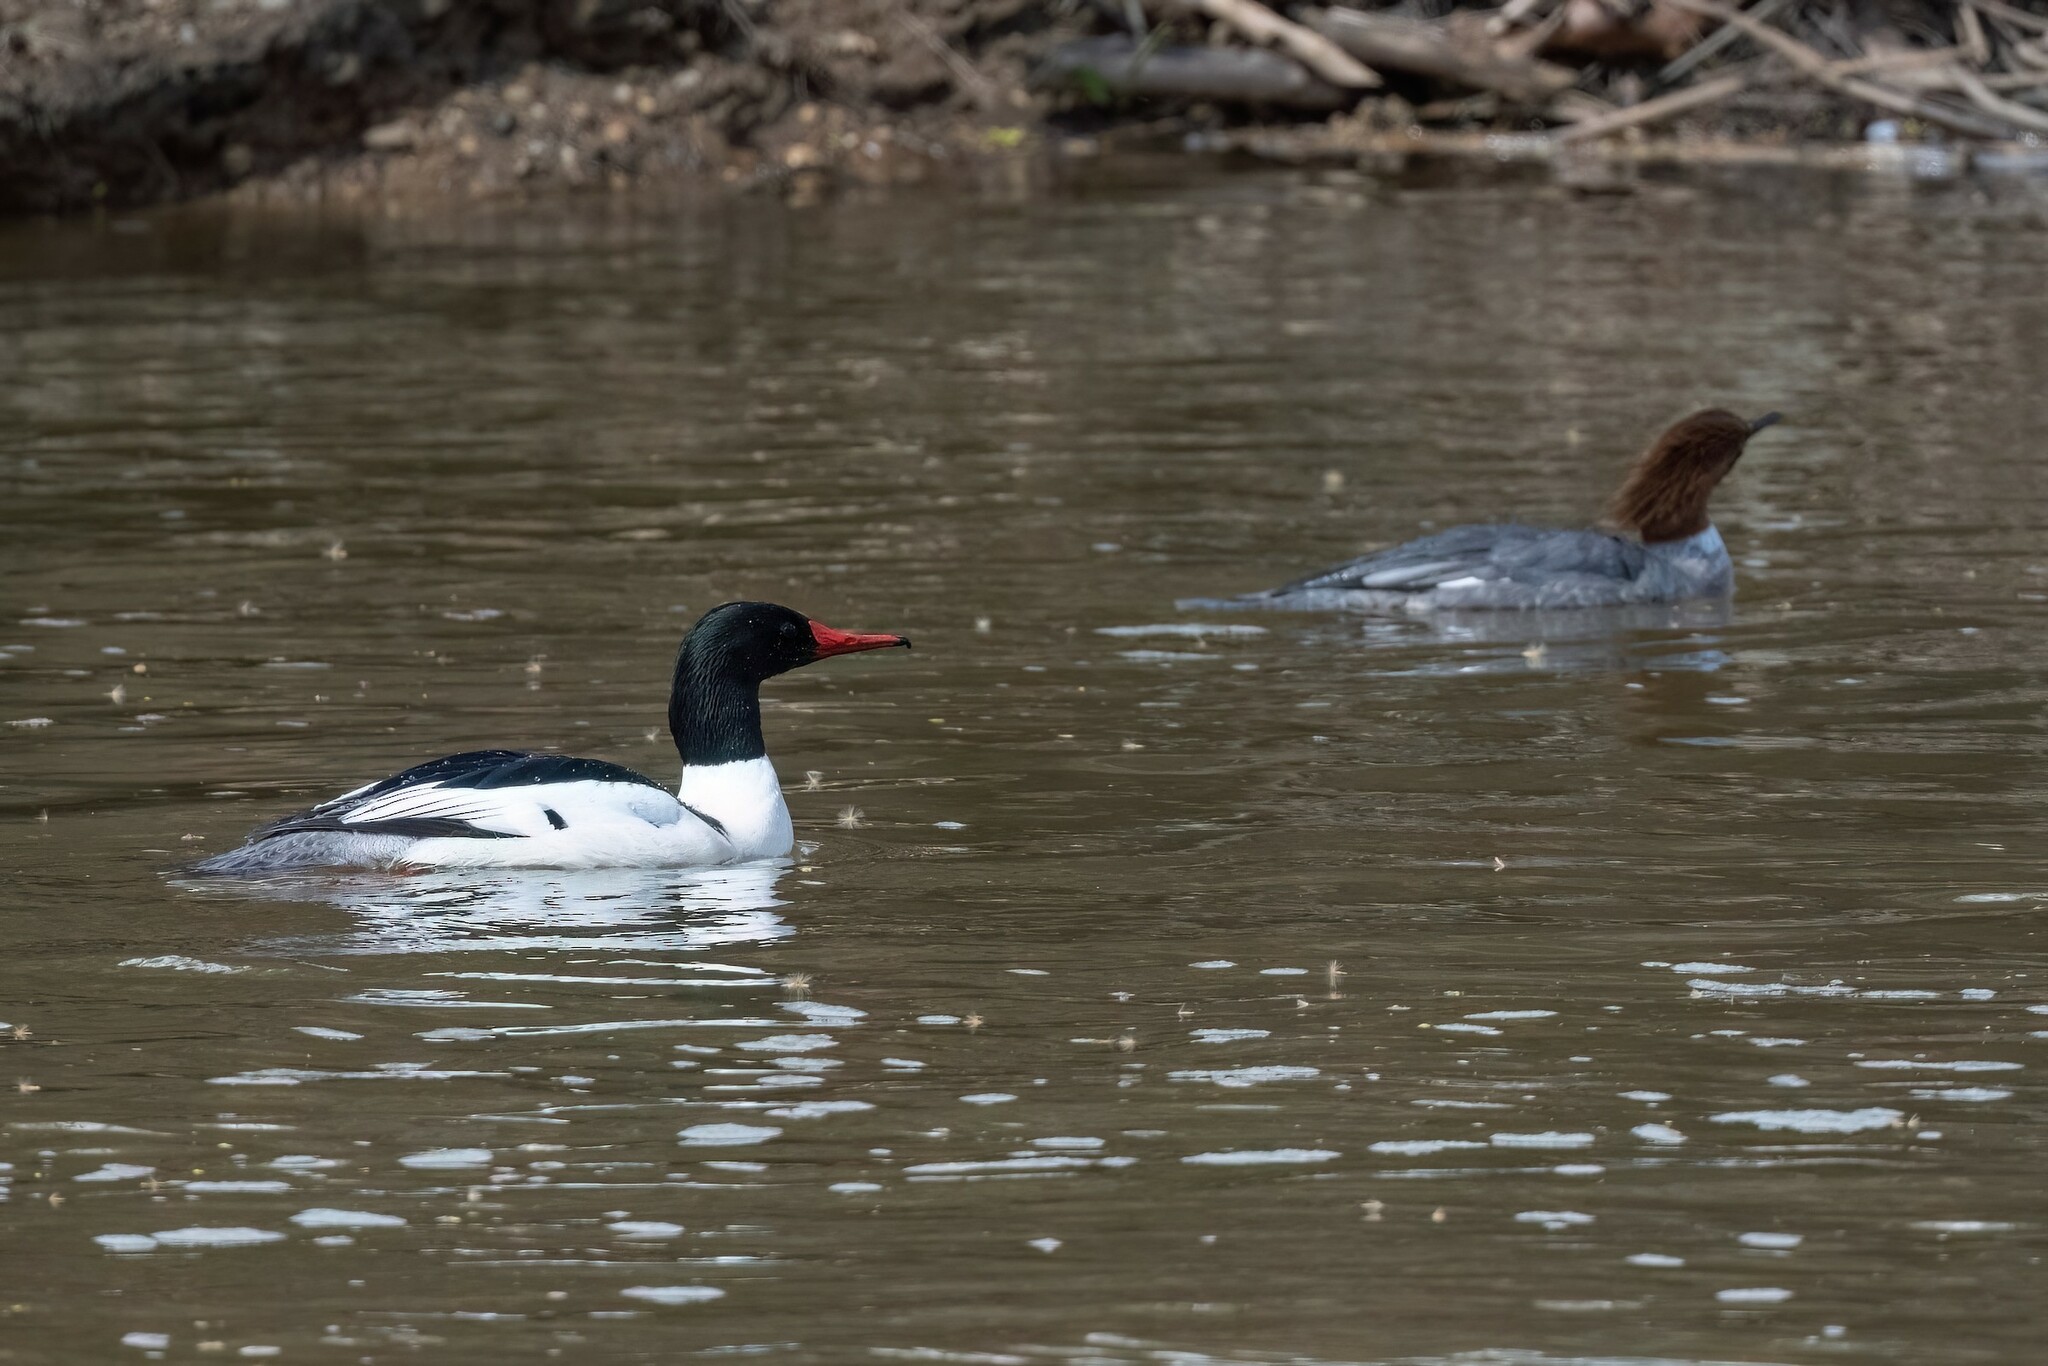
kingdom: Animalia
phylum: Chordata
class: Aves
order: Anseriformes
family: Anatidae
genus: Mergus
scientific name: Mergus merganser
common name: Common merganser
